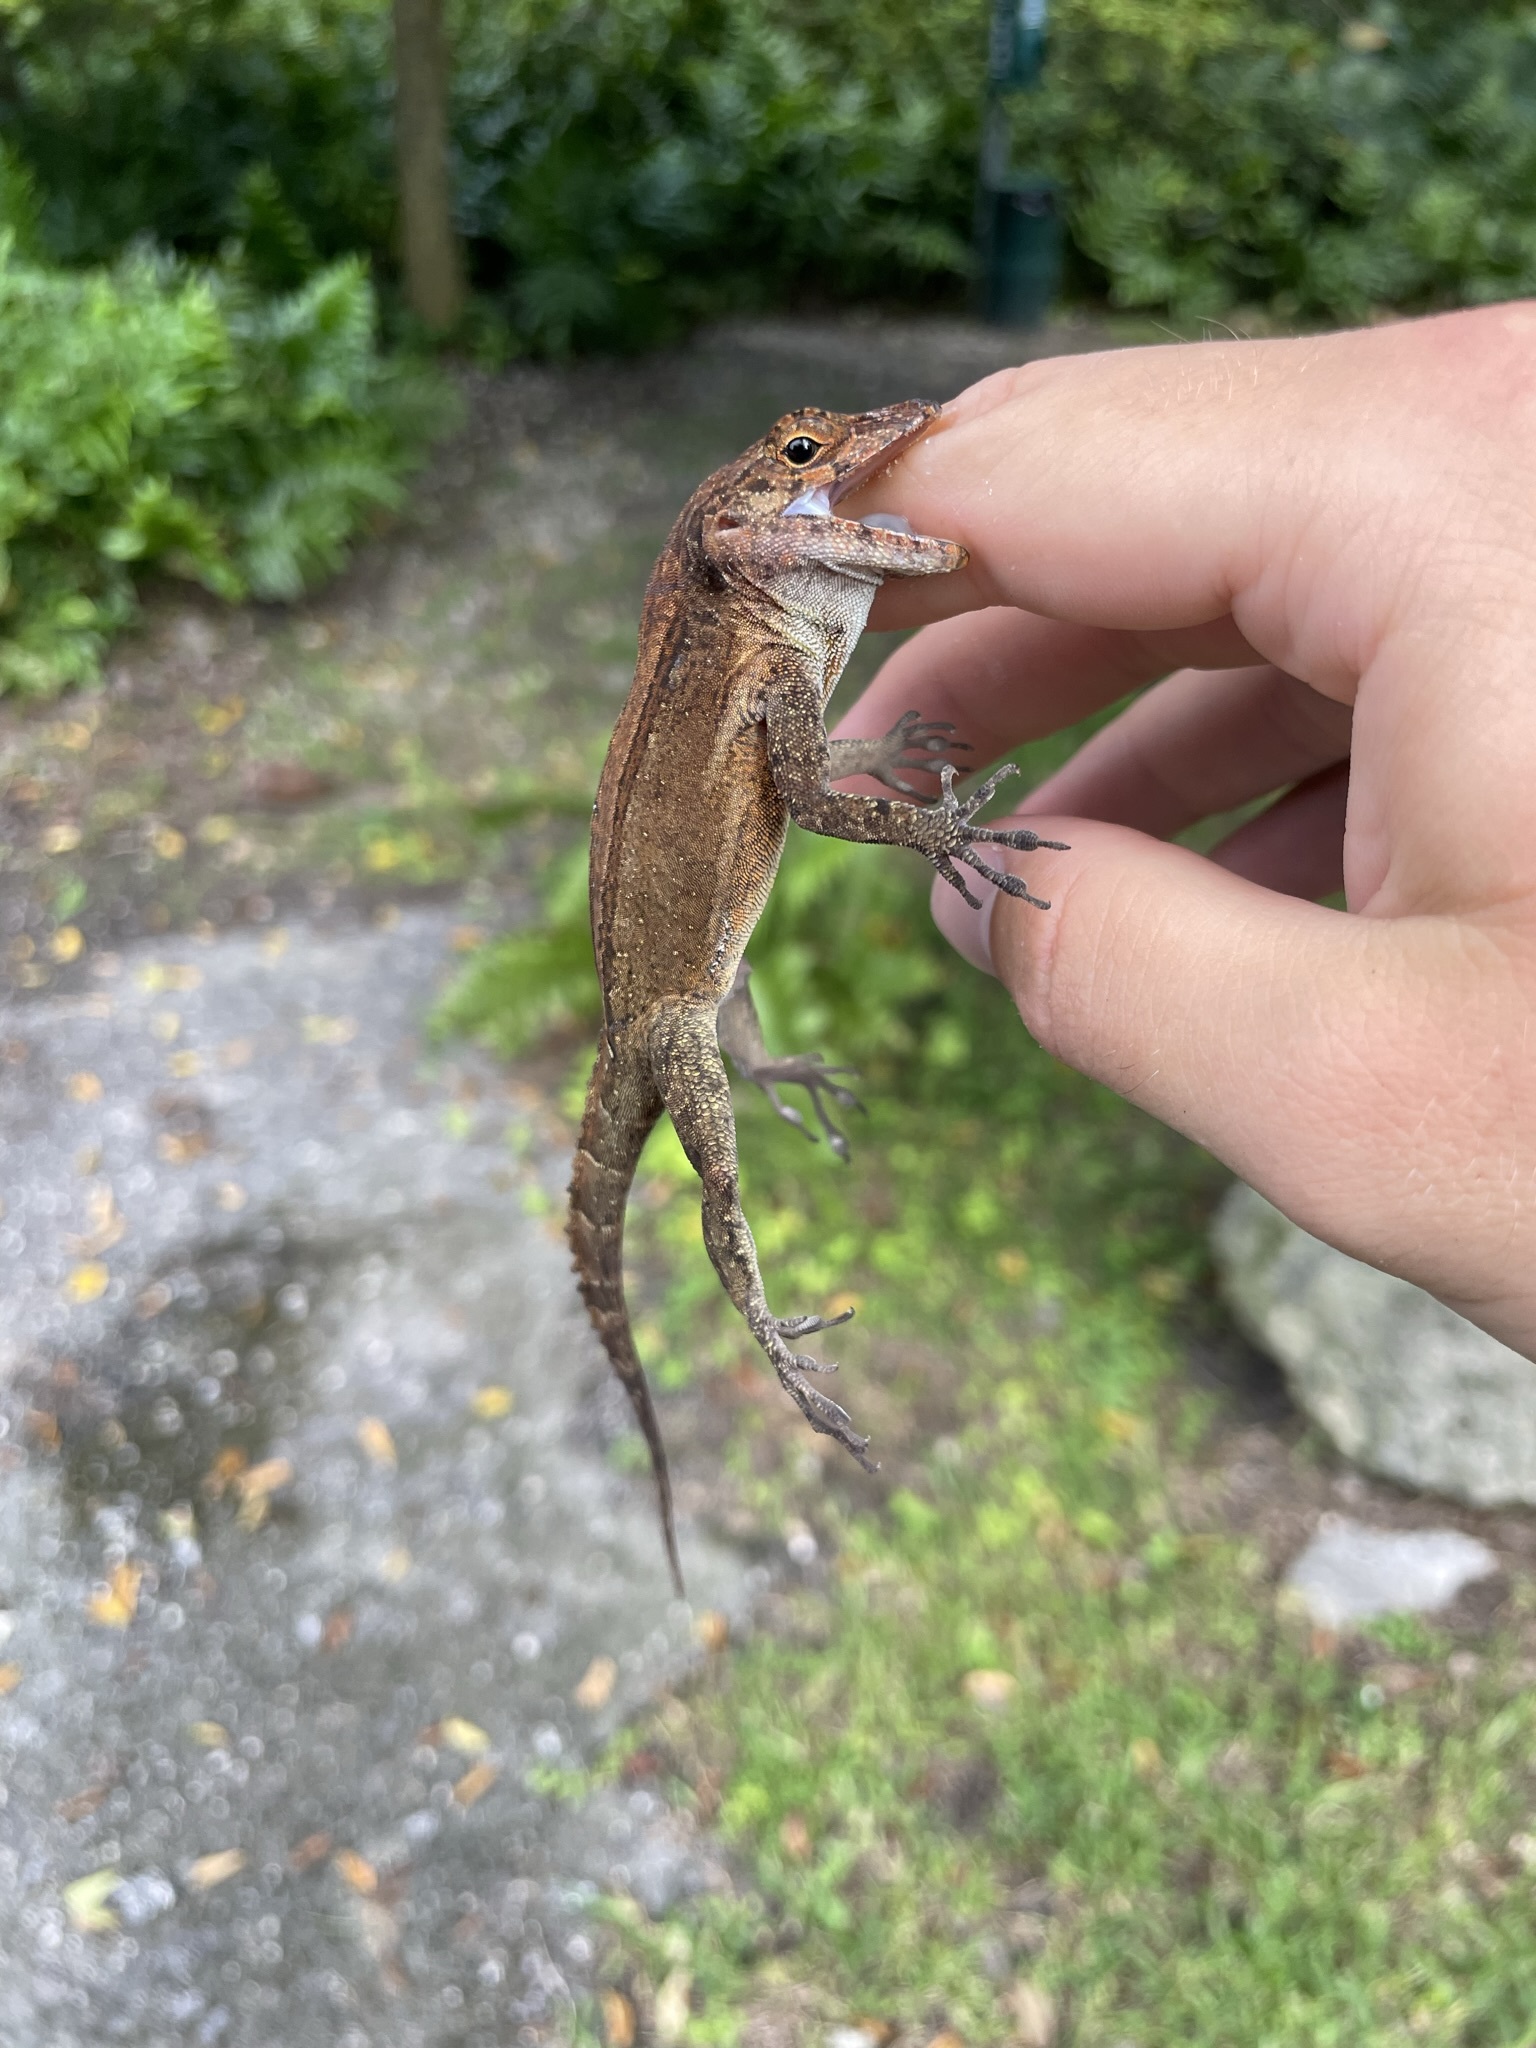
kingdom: Animalia
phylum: Chordata
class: Squamata
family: Dactyloidae
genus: Anolis
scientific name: Anolis cristatellus
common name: Crested anole
